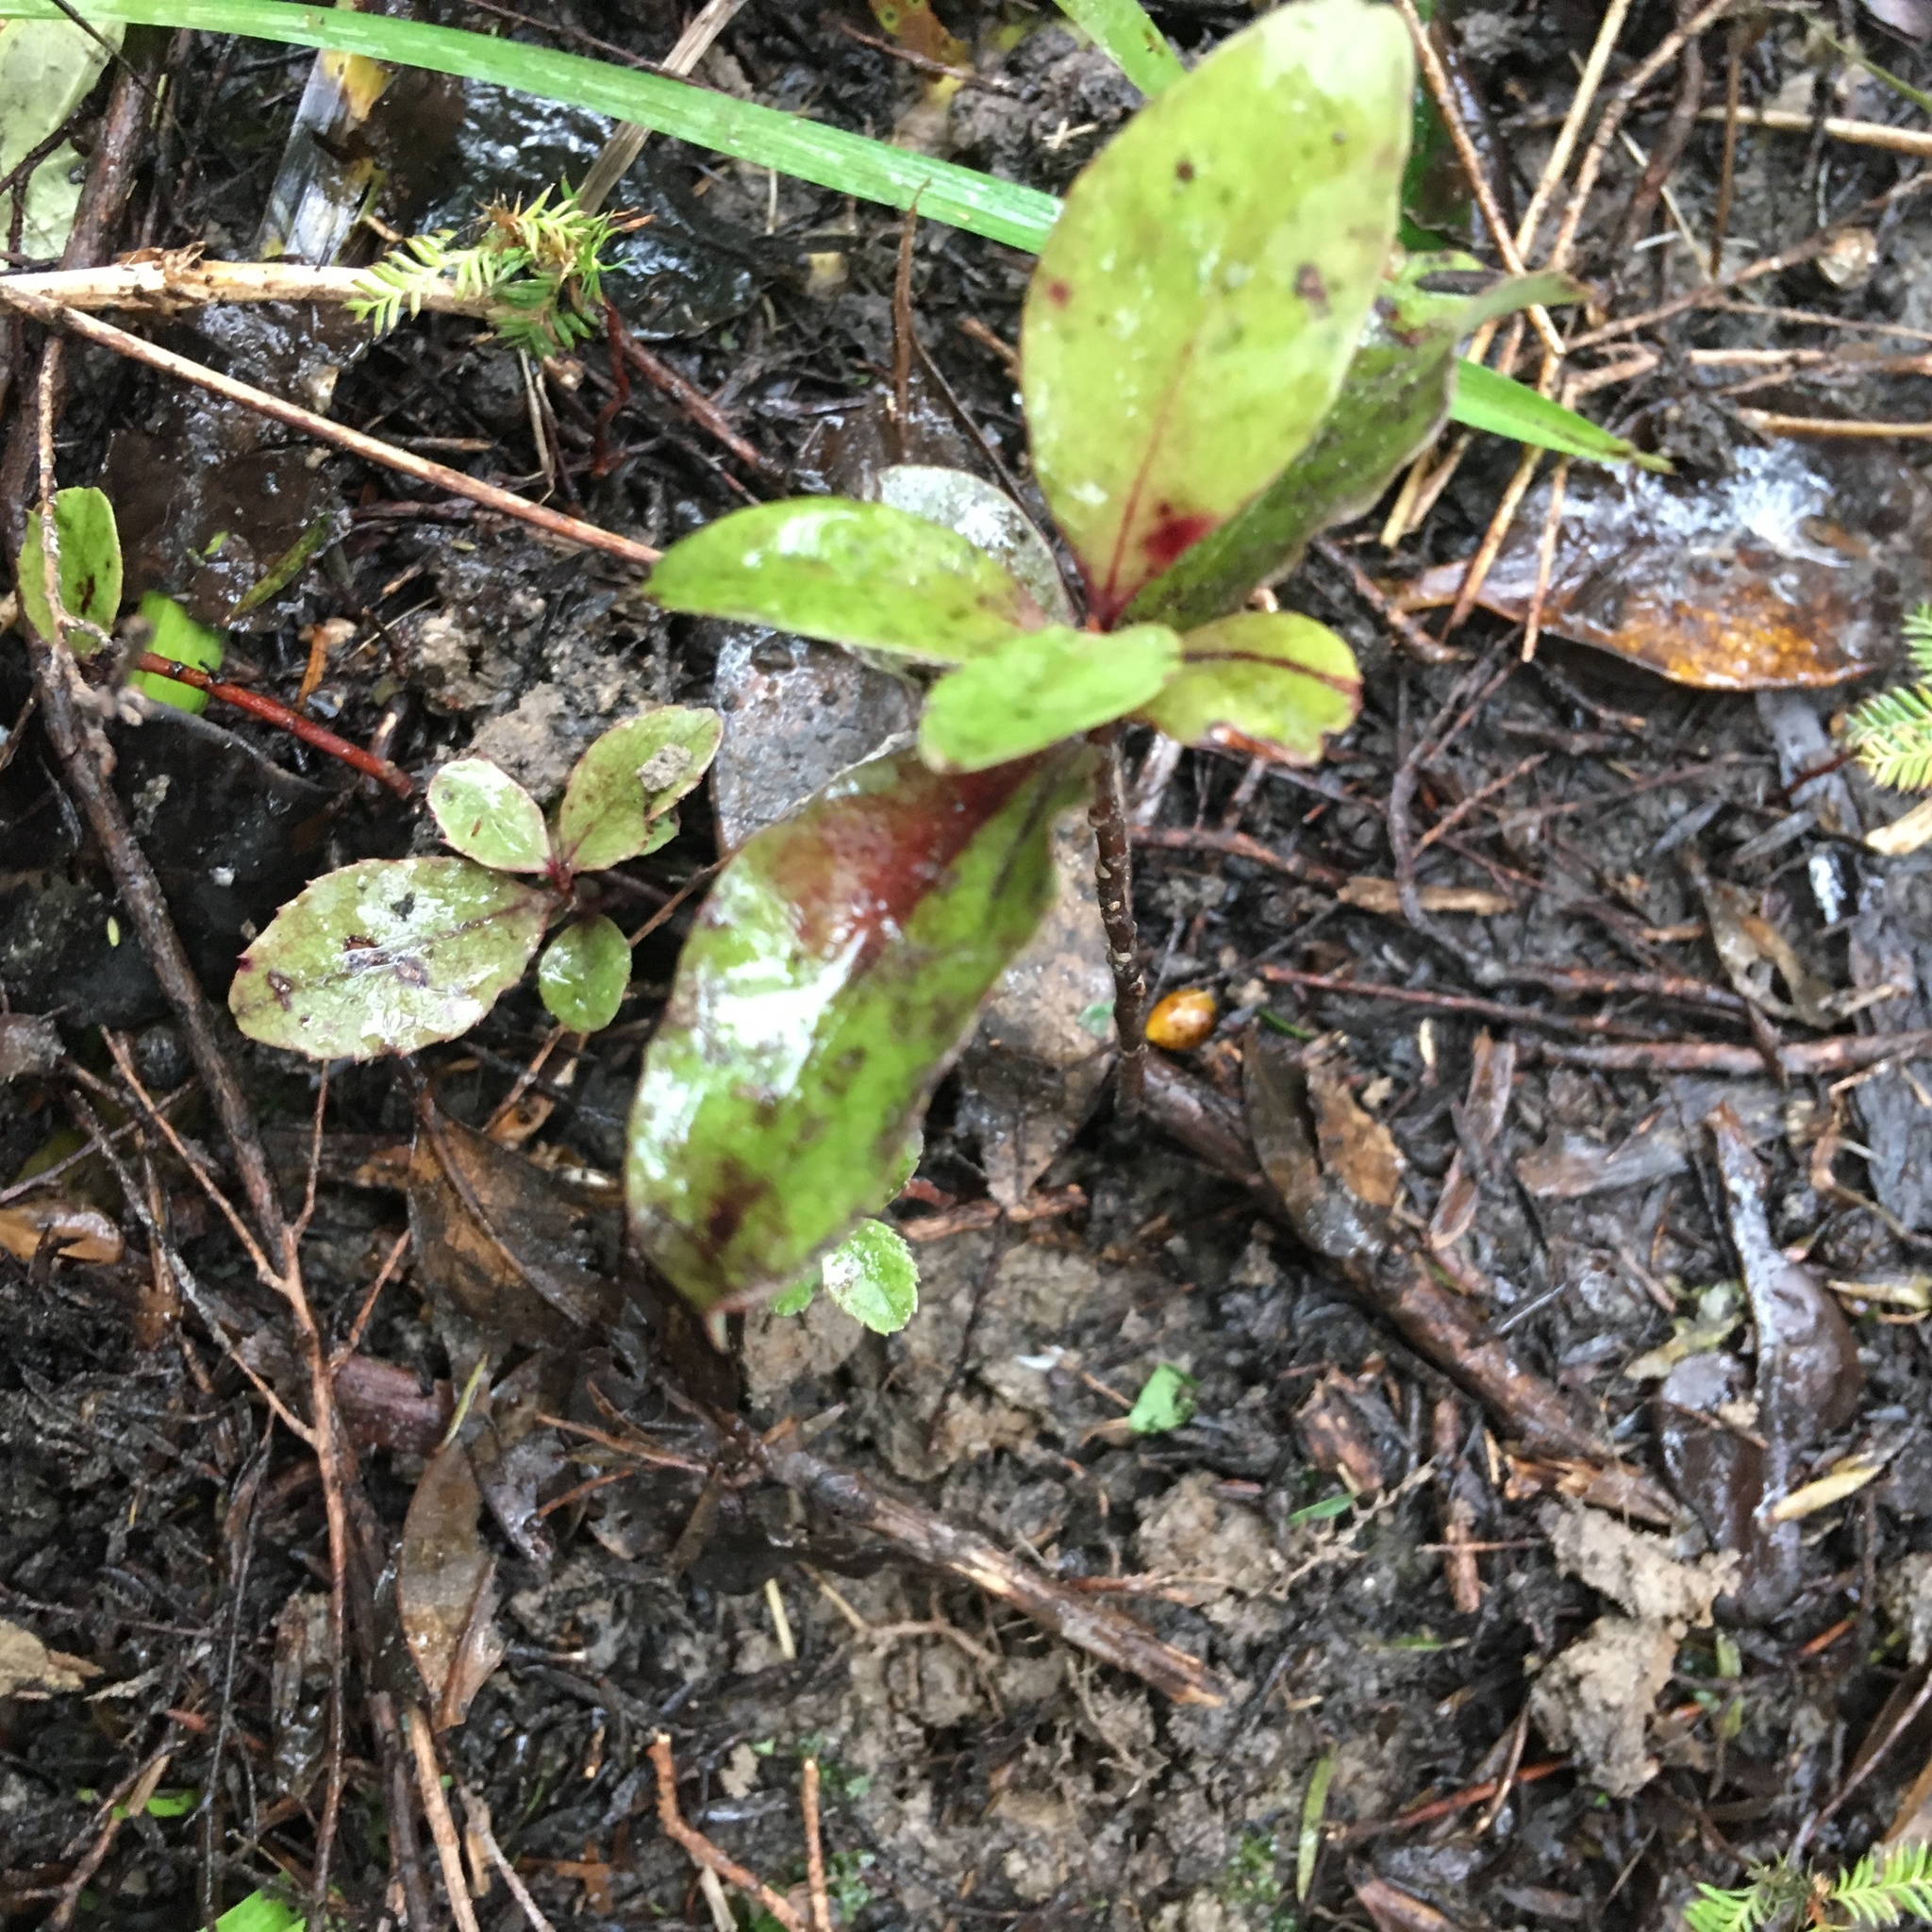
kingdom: Plantae
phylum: Tracheophyta
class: Magnoliopsida
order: Ericales
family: Primulaceae
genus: Myrsine
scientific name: Myrsine australis
